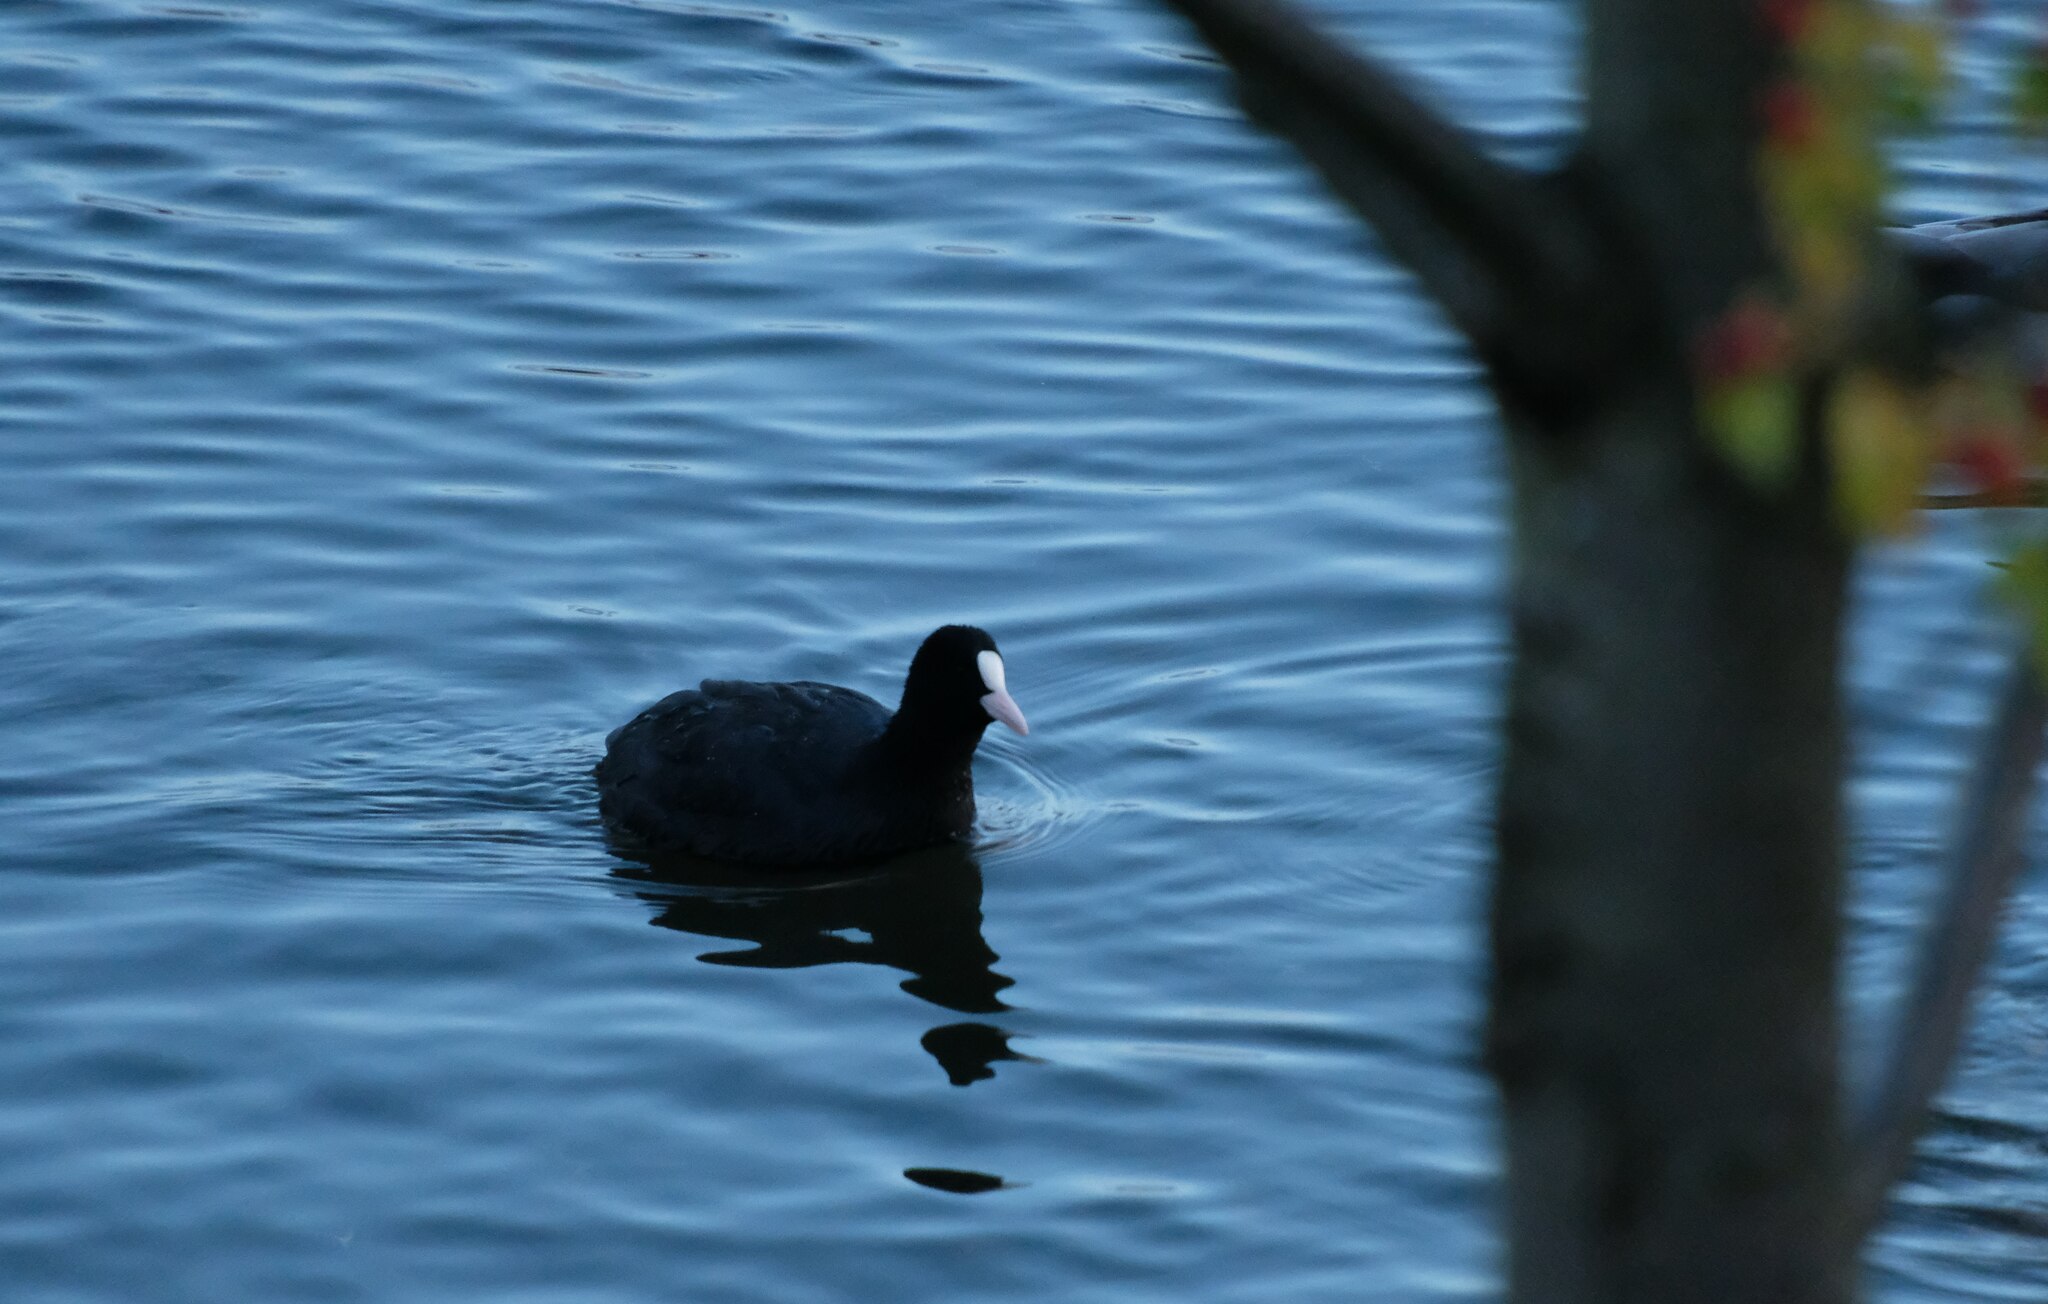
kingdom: Animalia
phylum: Chordata
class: Aves
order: Gruiformes
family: Rallidae
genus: Fulica
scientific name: Fulica atra
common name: Eurasian coot
